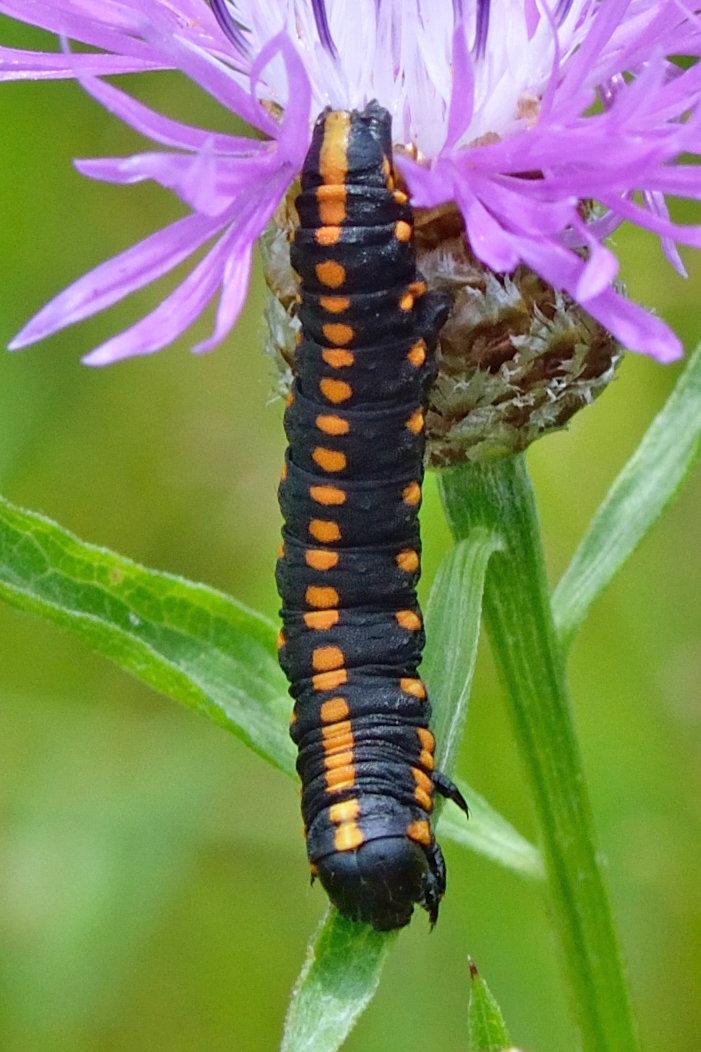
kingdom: Animalia
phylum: Arthropoda
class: Insecta
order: Lepidoptera
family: Noctuidae
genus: Cucullia
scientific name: Cucullia lucifuga
